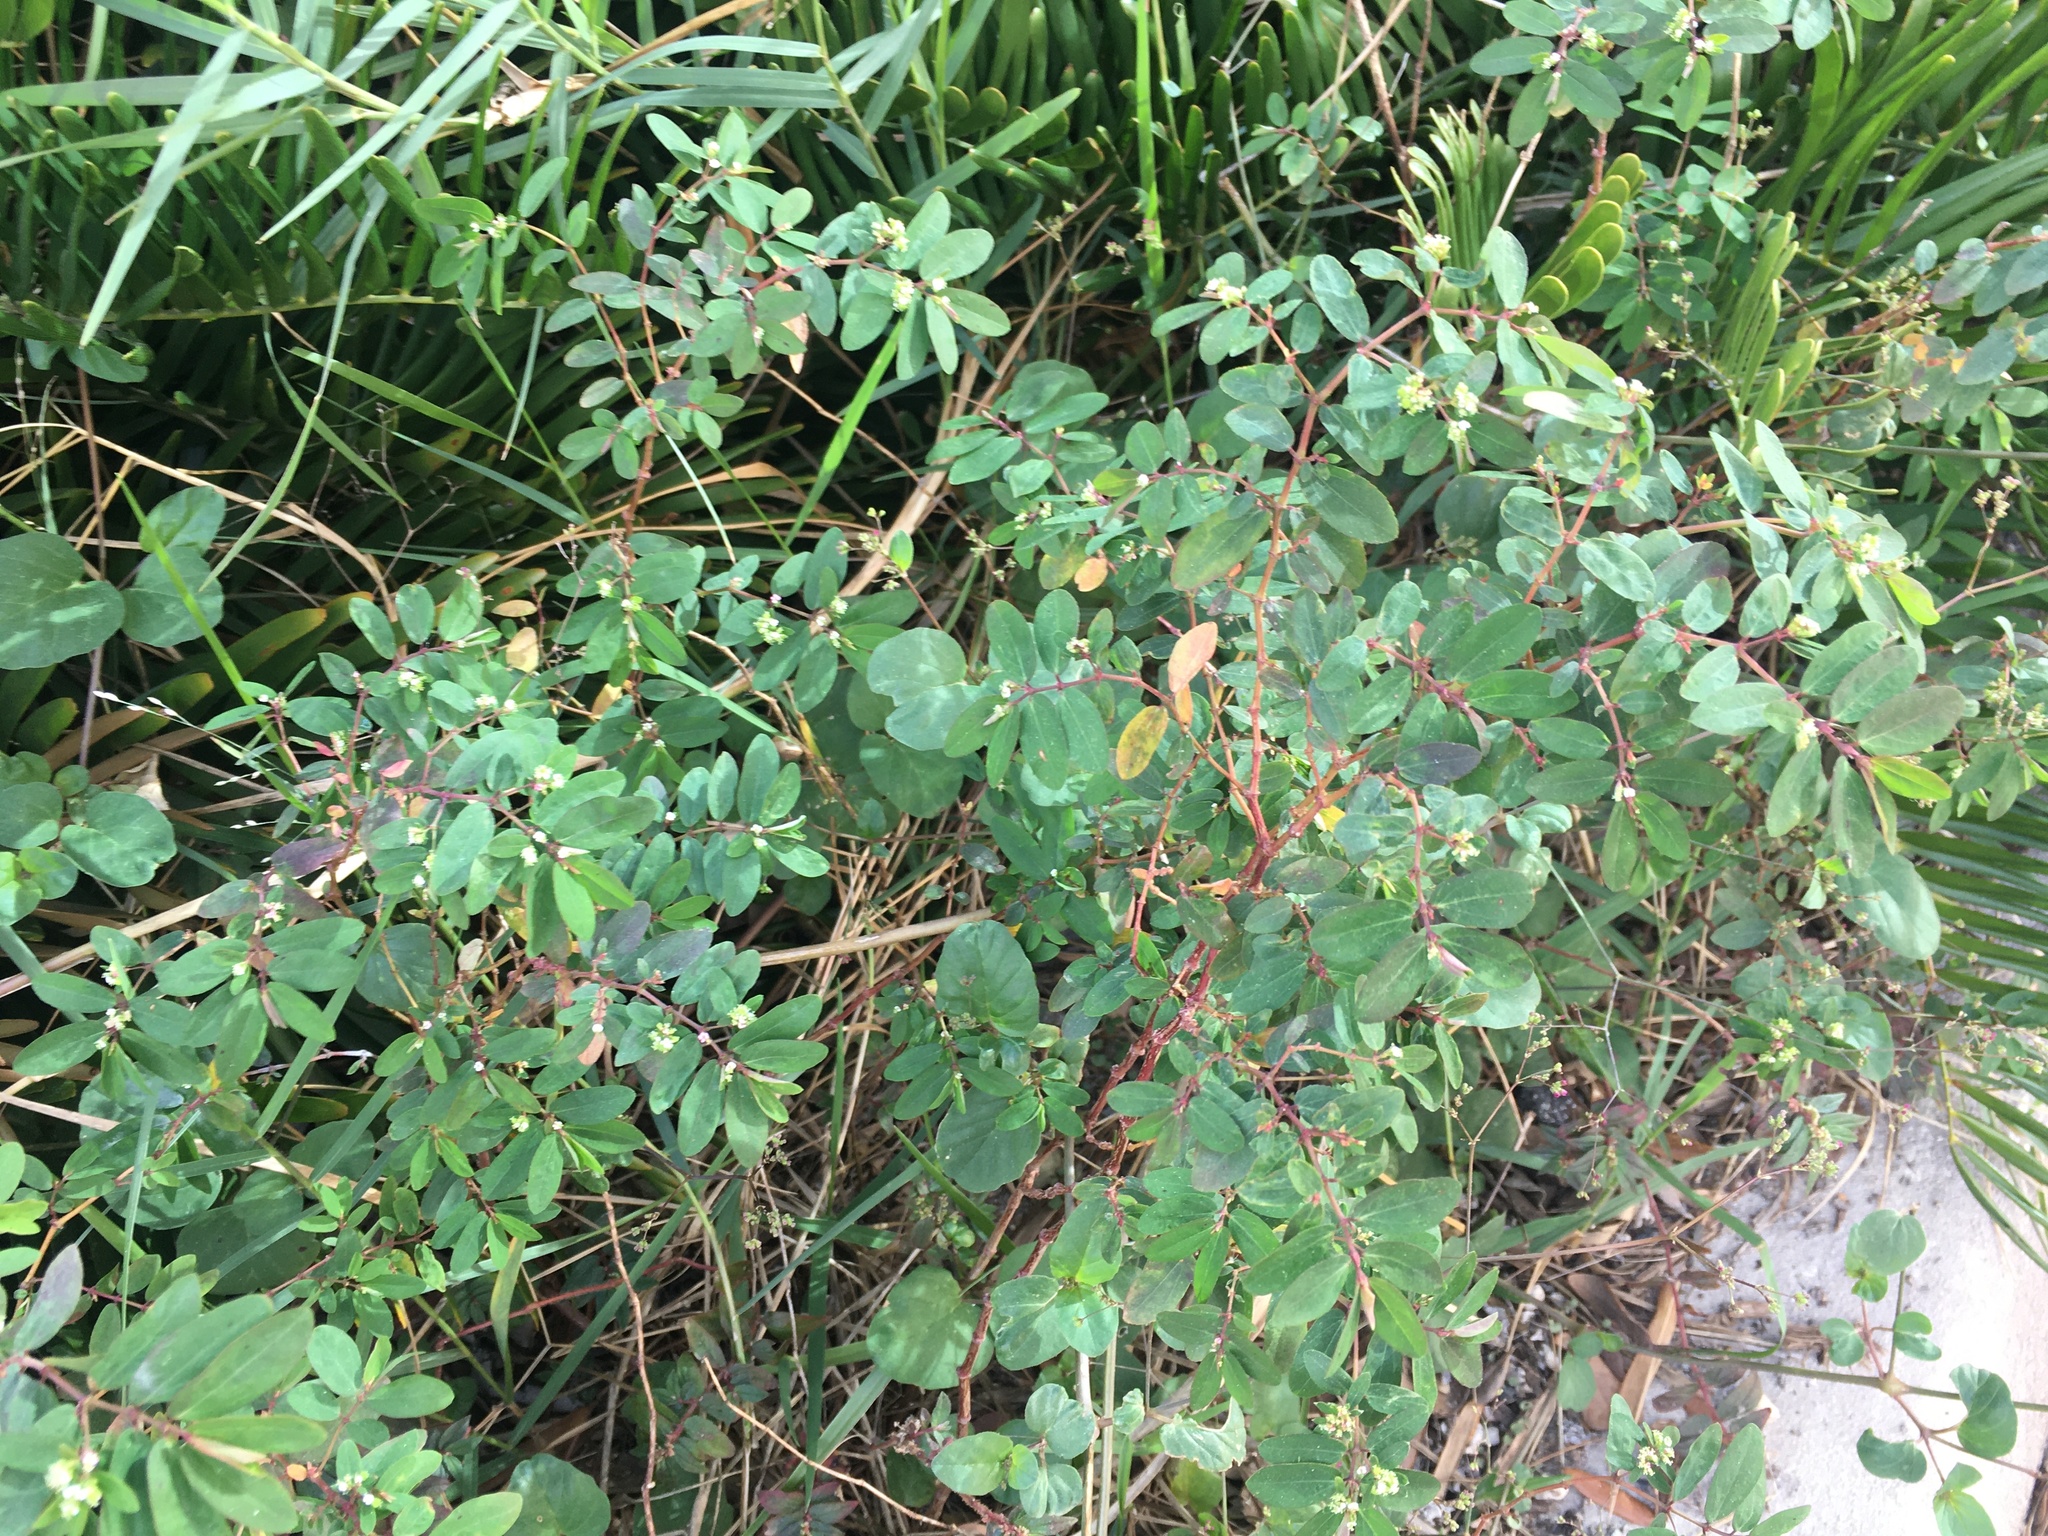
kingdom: Plantae
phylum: Tracheophyta
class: Magnoliopsida
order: Malpighiales
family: Euphorbiaceae
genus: Euphorbia
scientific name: Euphorbia hypericifolia
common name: Graceful sandmat
